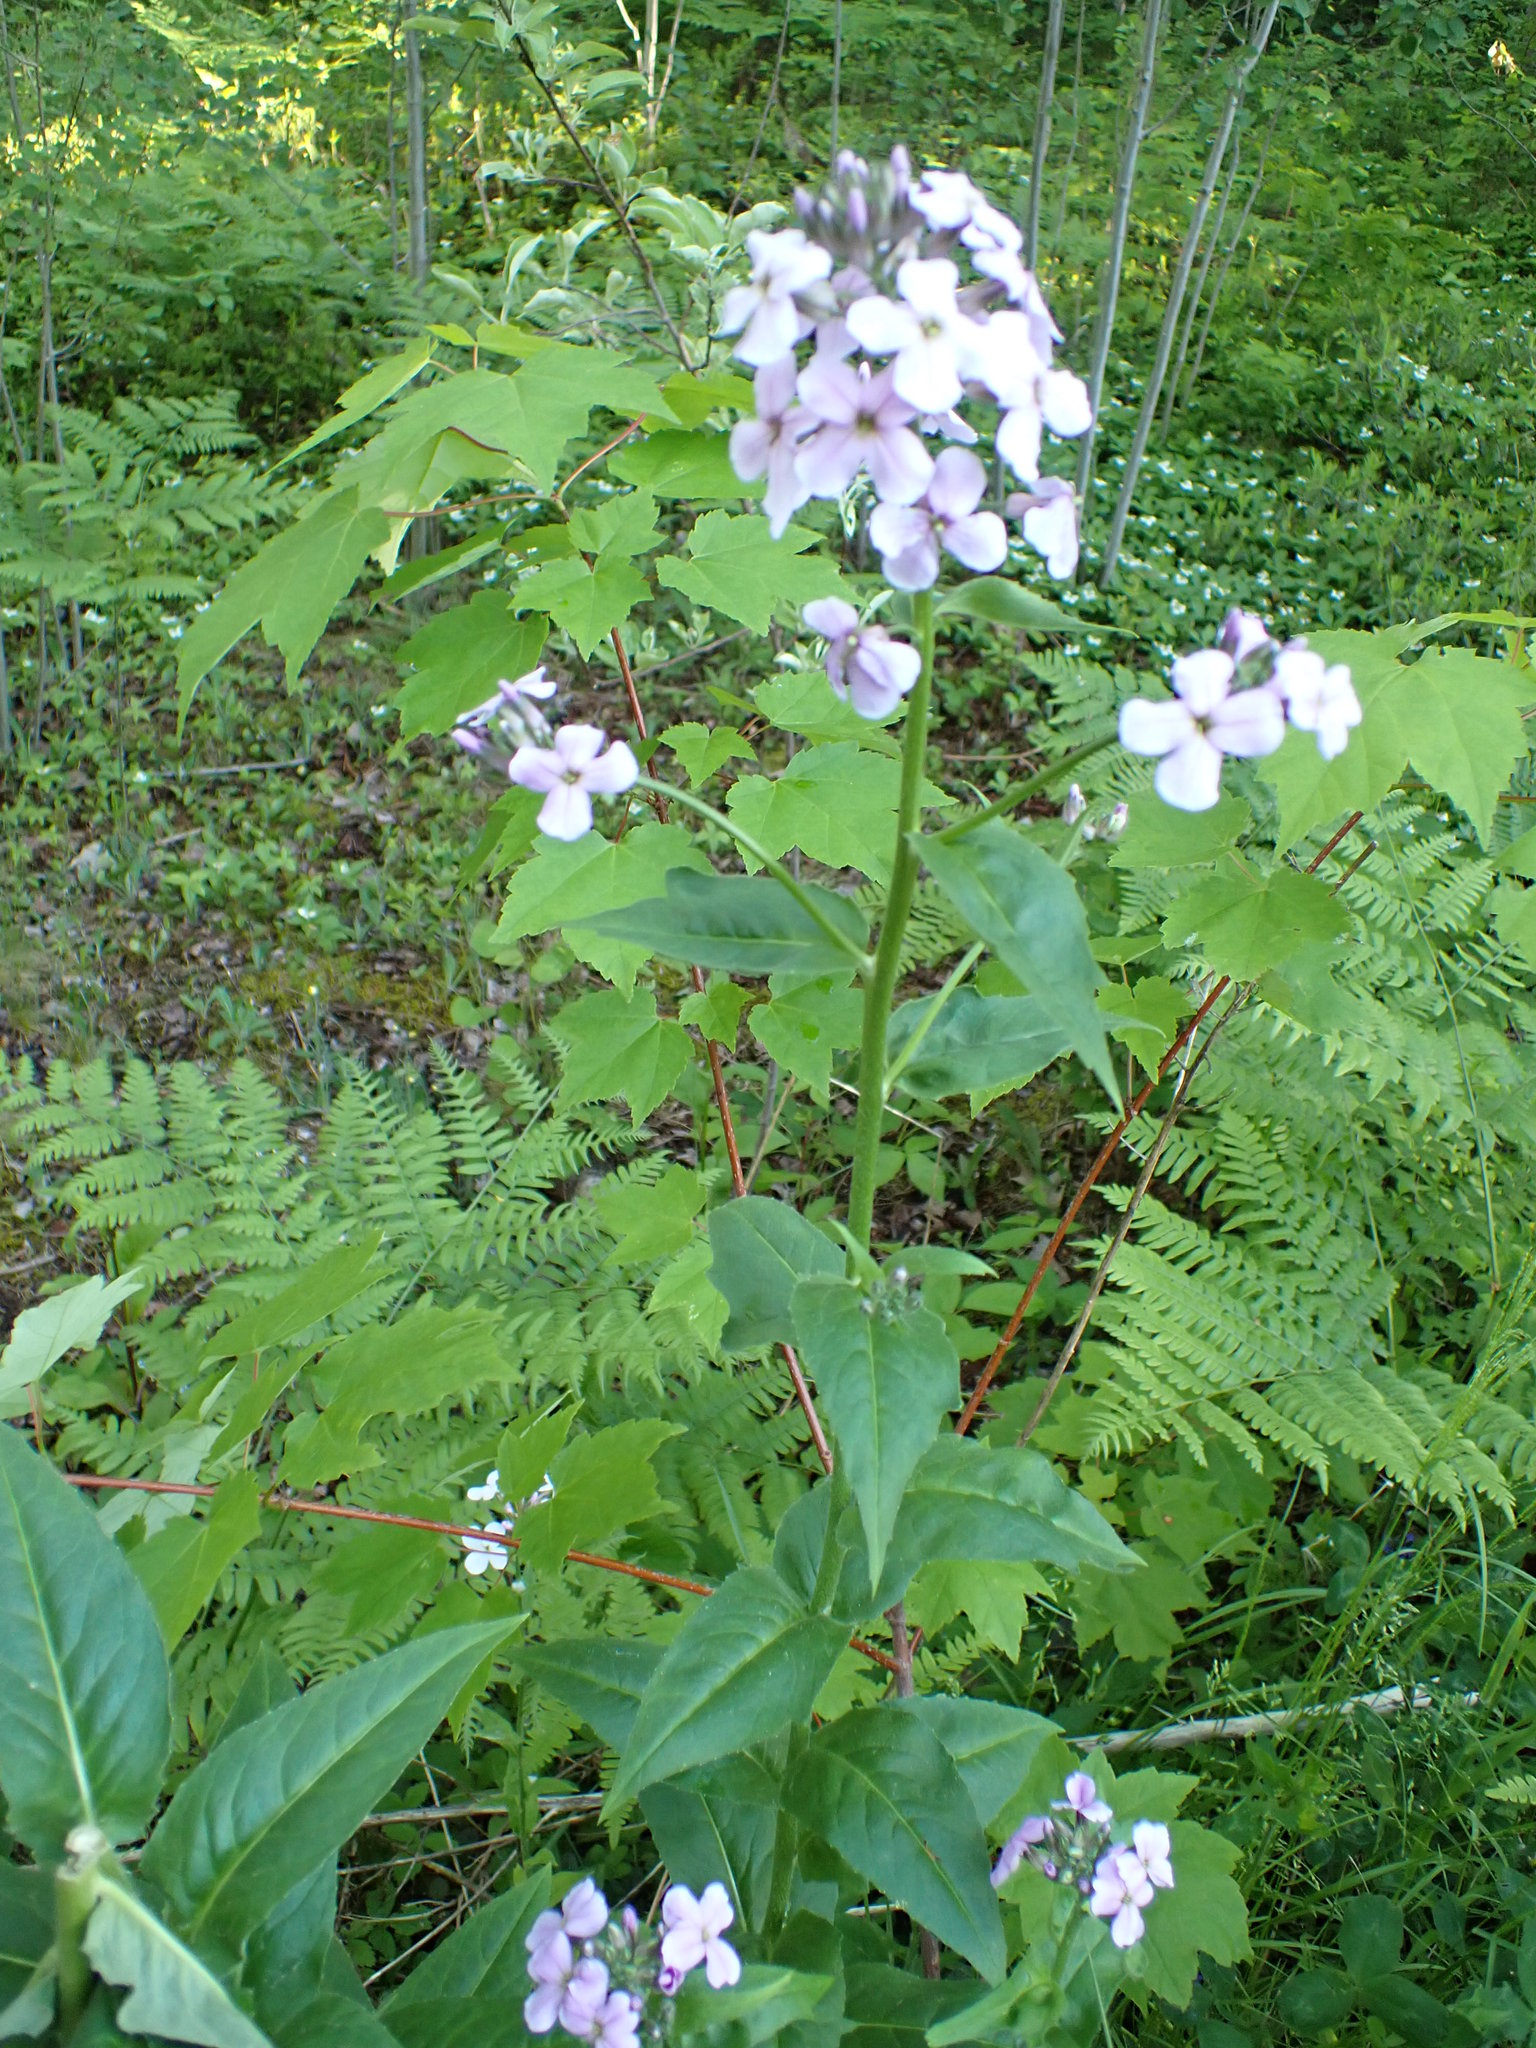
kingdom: Plantae
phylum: Tracheophyta
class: Magnoliopsida
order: Brassicales
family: Brassicaceae
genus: Hesperis
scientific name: Hesperis matronalis
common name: Dame's-violet
